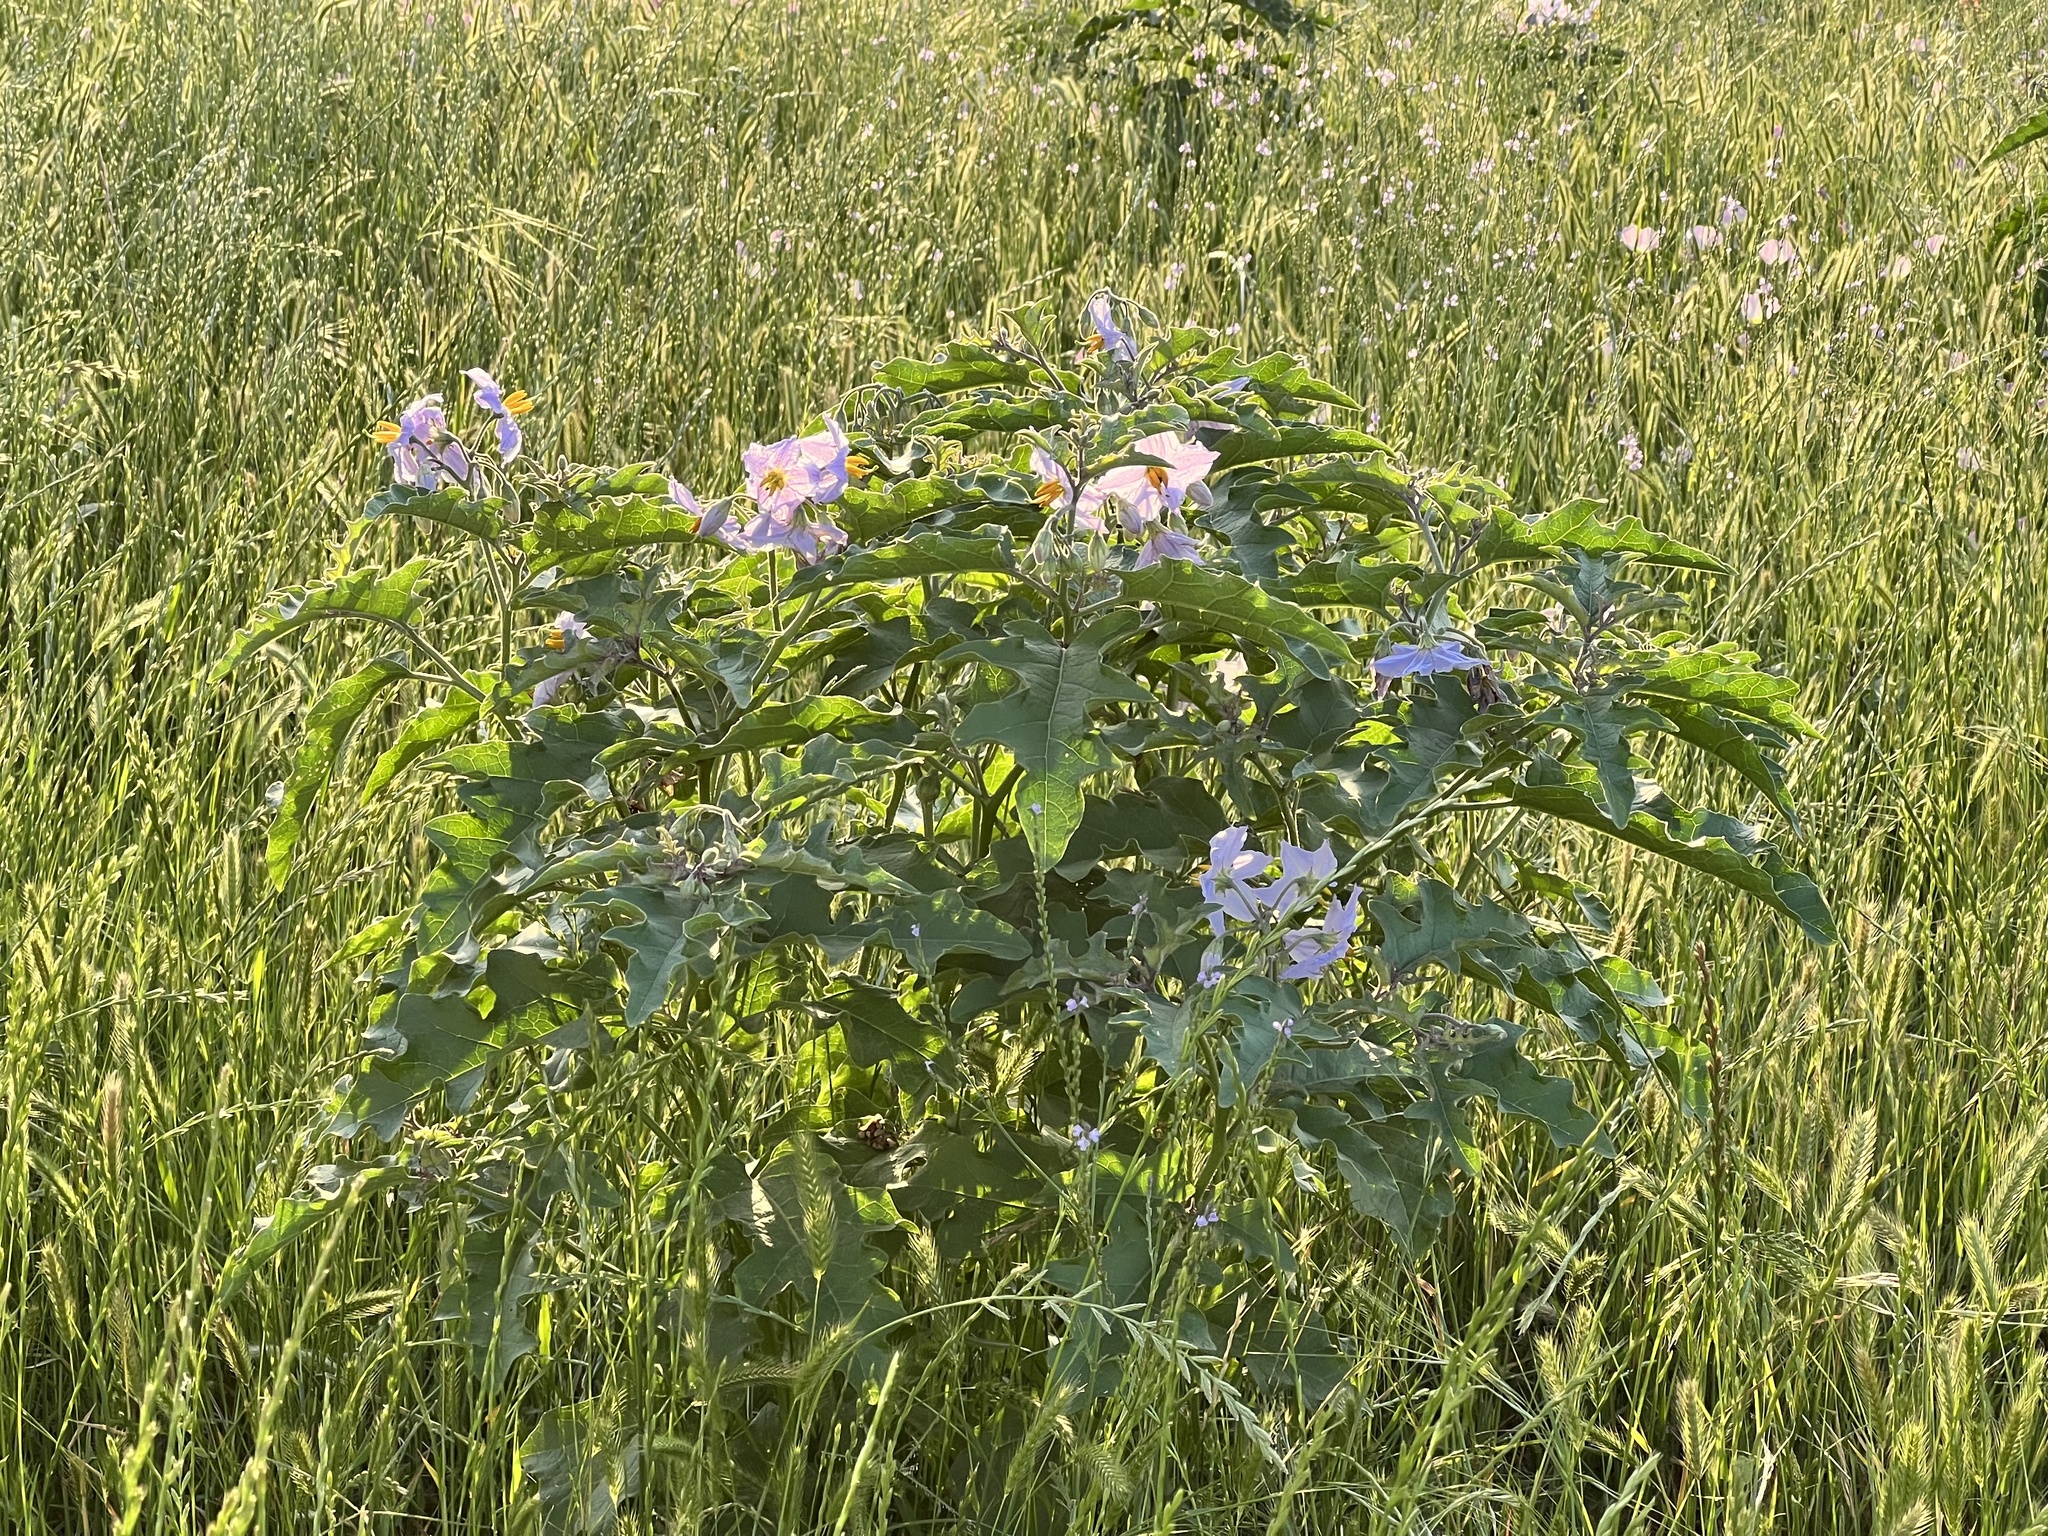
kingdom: Plantae
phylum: Tracheophyta
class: Magnoliopsida
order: Solanales
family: Solanaceae
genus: Solanum
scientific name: Solanum dimidiatum
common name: Carolina horse-nettle
